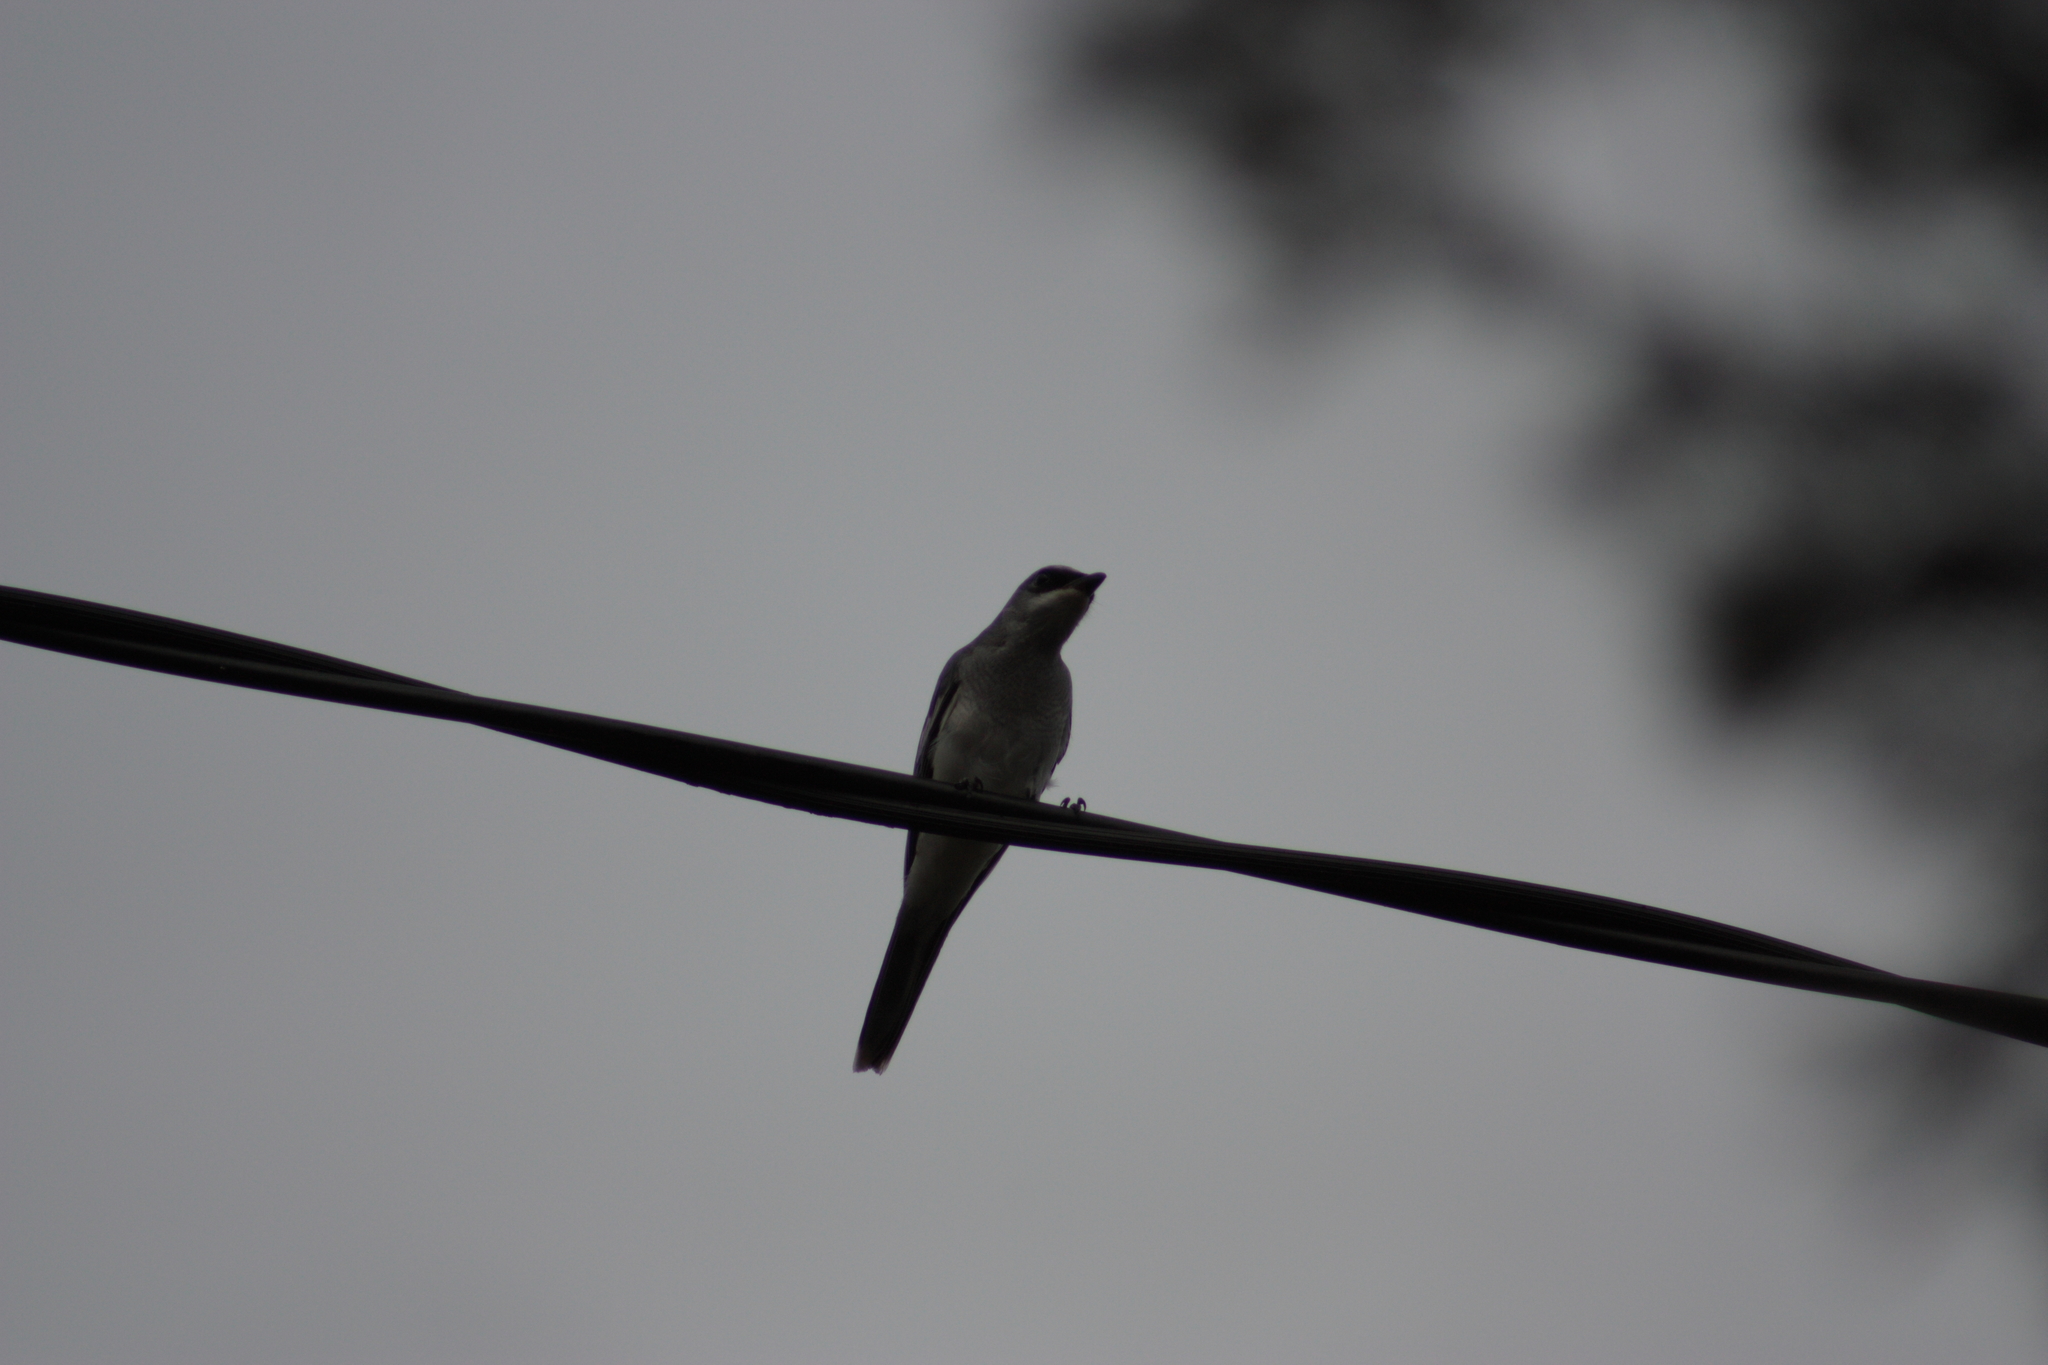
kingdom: Animalia
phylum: Chordata
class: Aves
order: Passeriformes
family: Campephagidae
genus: Coracina
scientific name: Coracina papuensis
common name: White-bellied cuckooshrike
